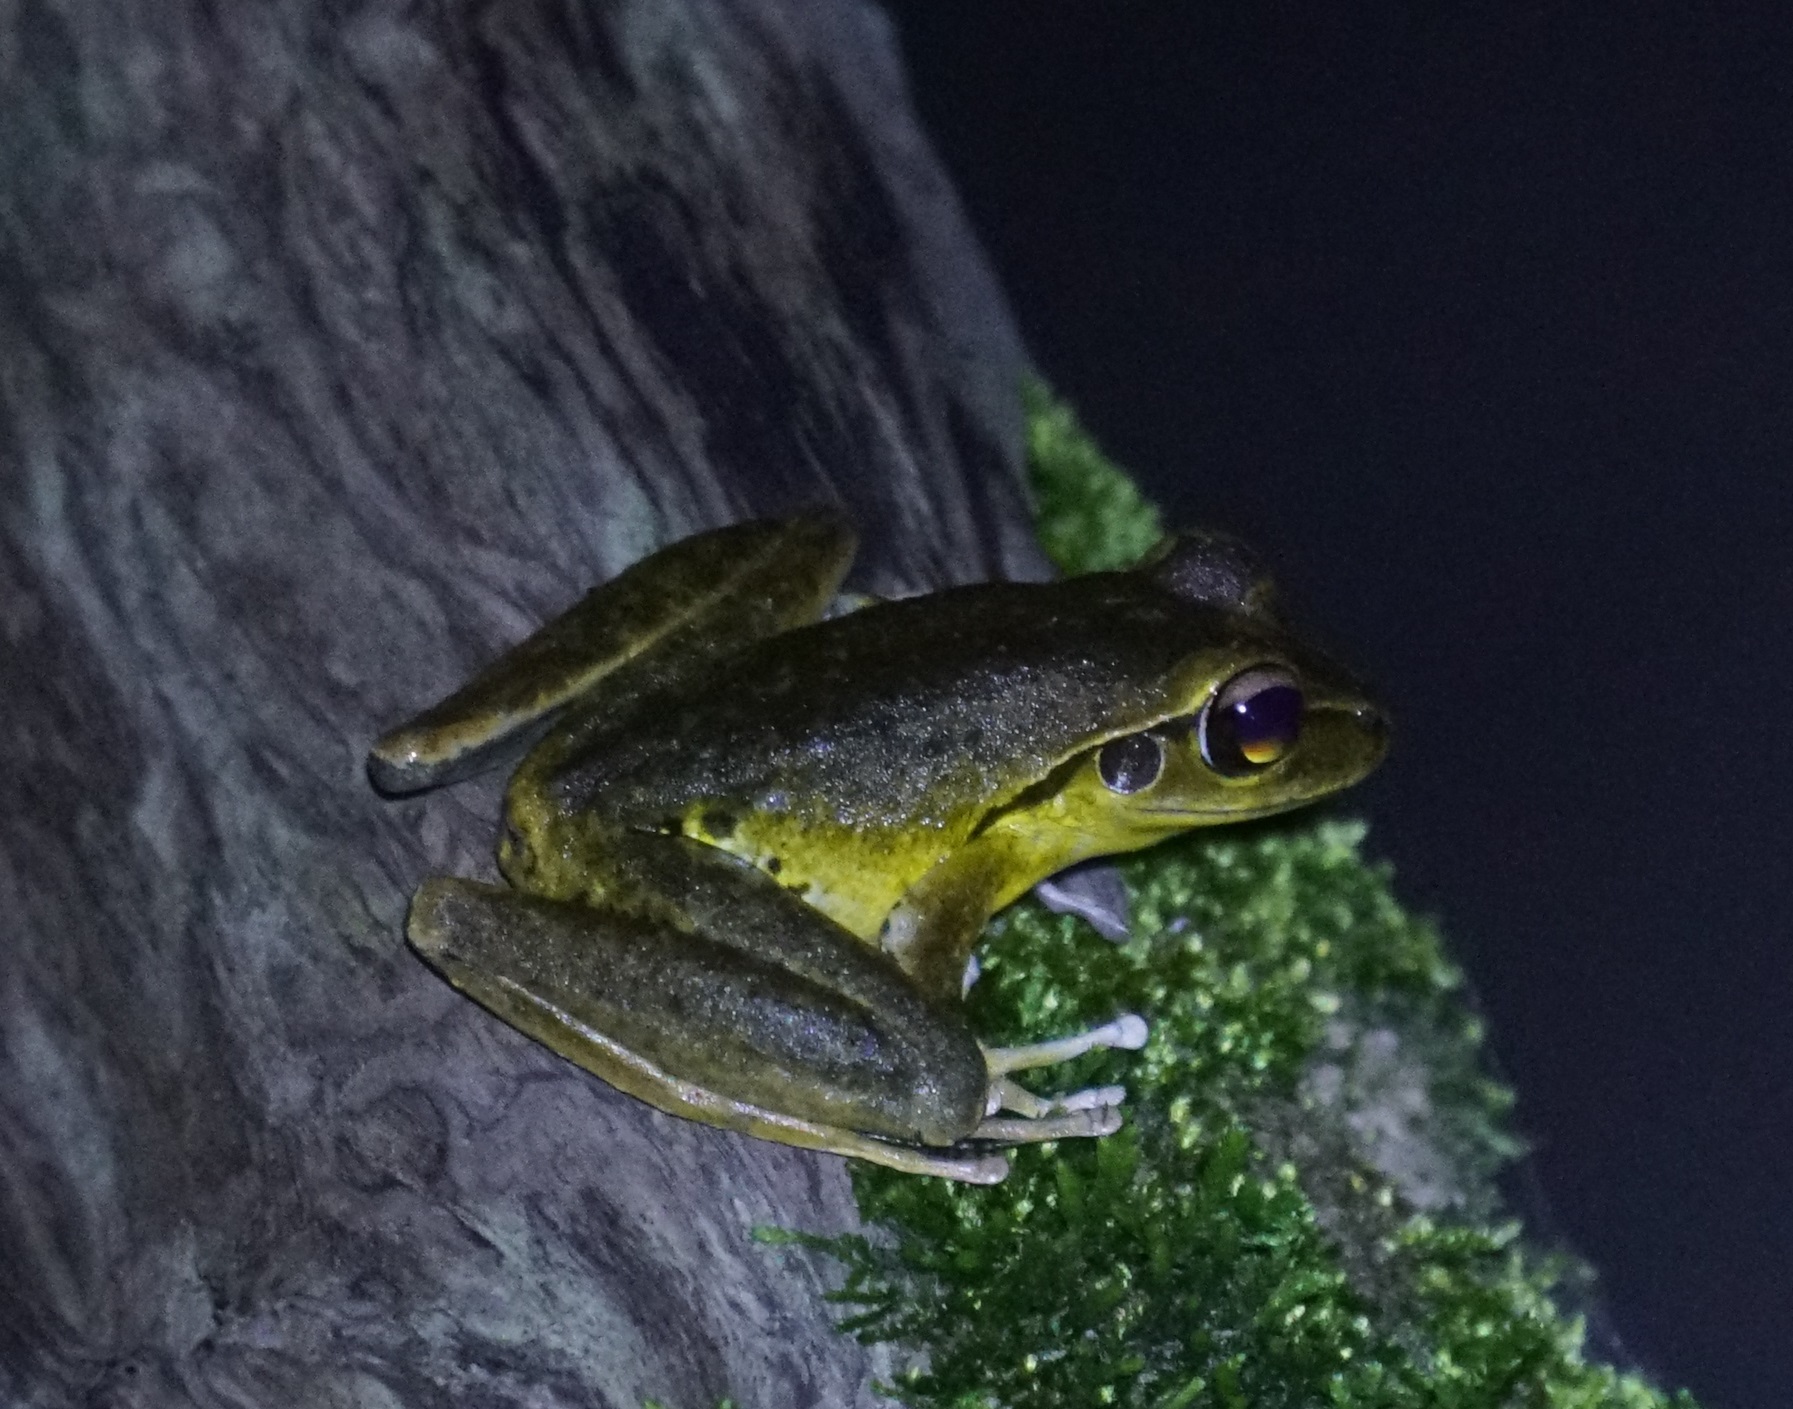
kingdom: Animalia
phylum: Chordata
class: Amphibia
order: Anura
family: Hylidae
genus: Ranoidea
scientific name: Ranoidea
